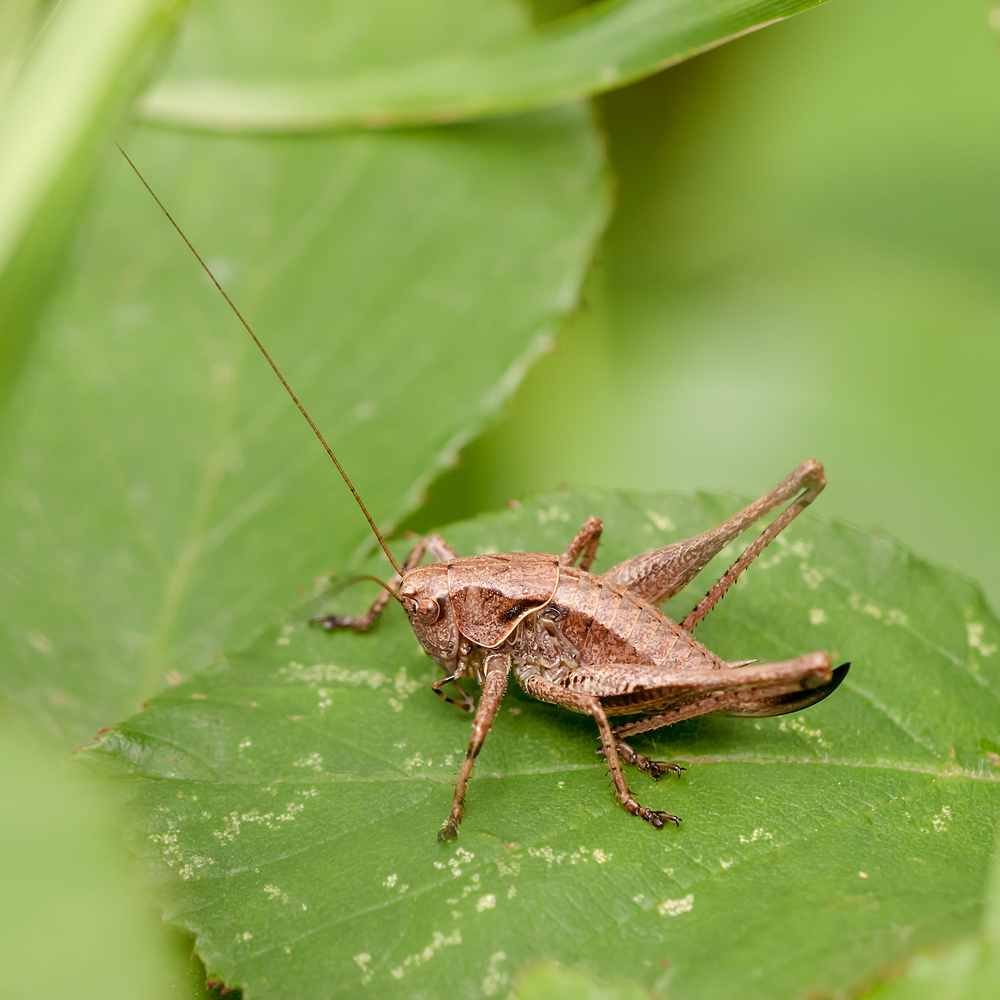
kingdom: Animalia
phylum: Arthropoda
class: Insecta
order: Orthoptera
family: Tettigoniidae
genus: Pholidoptera
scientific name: Pholidoptera griseoaptera
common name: Dark bush-cricket
